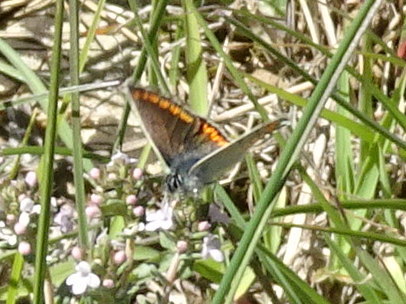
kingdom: Animalia
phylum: Arthropoda
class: Insecta
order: Lepidoptera
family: Lycaenidae
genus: Aricia
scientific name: Aricia agestis
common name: Brown argus
